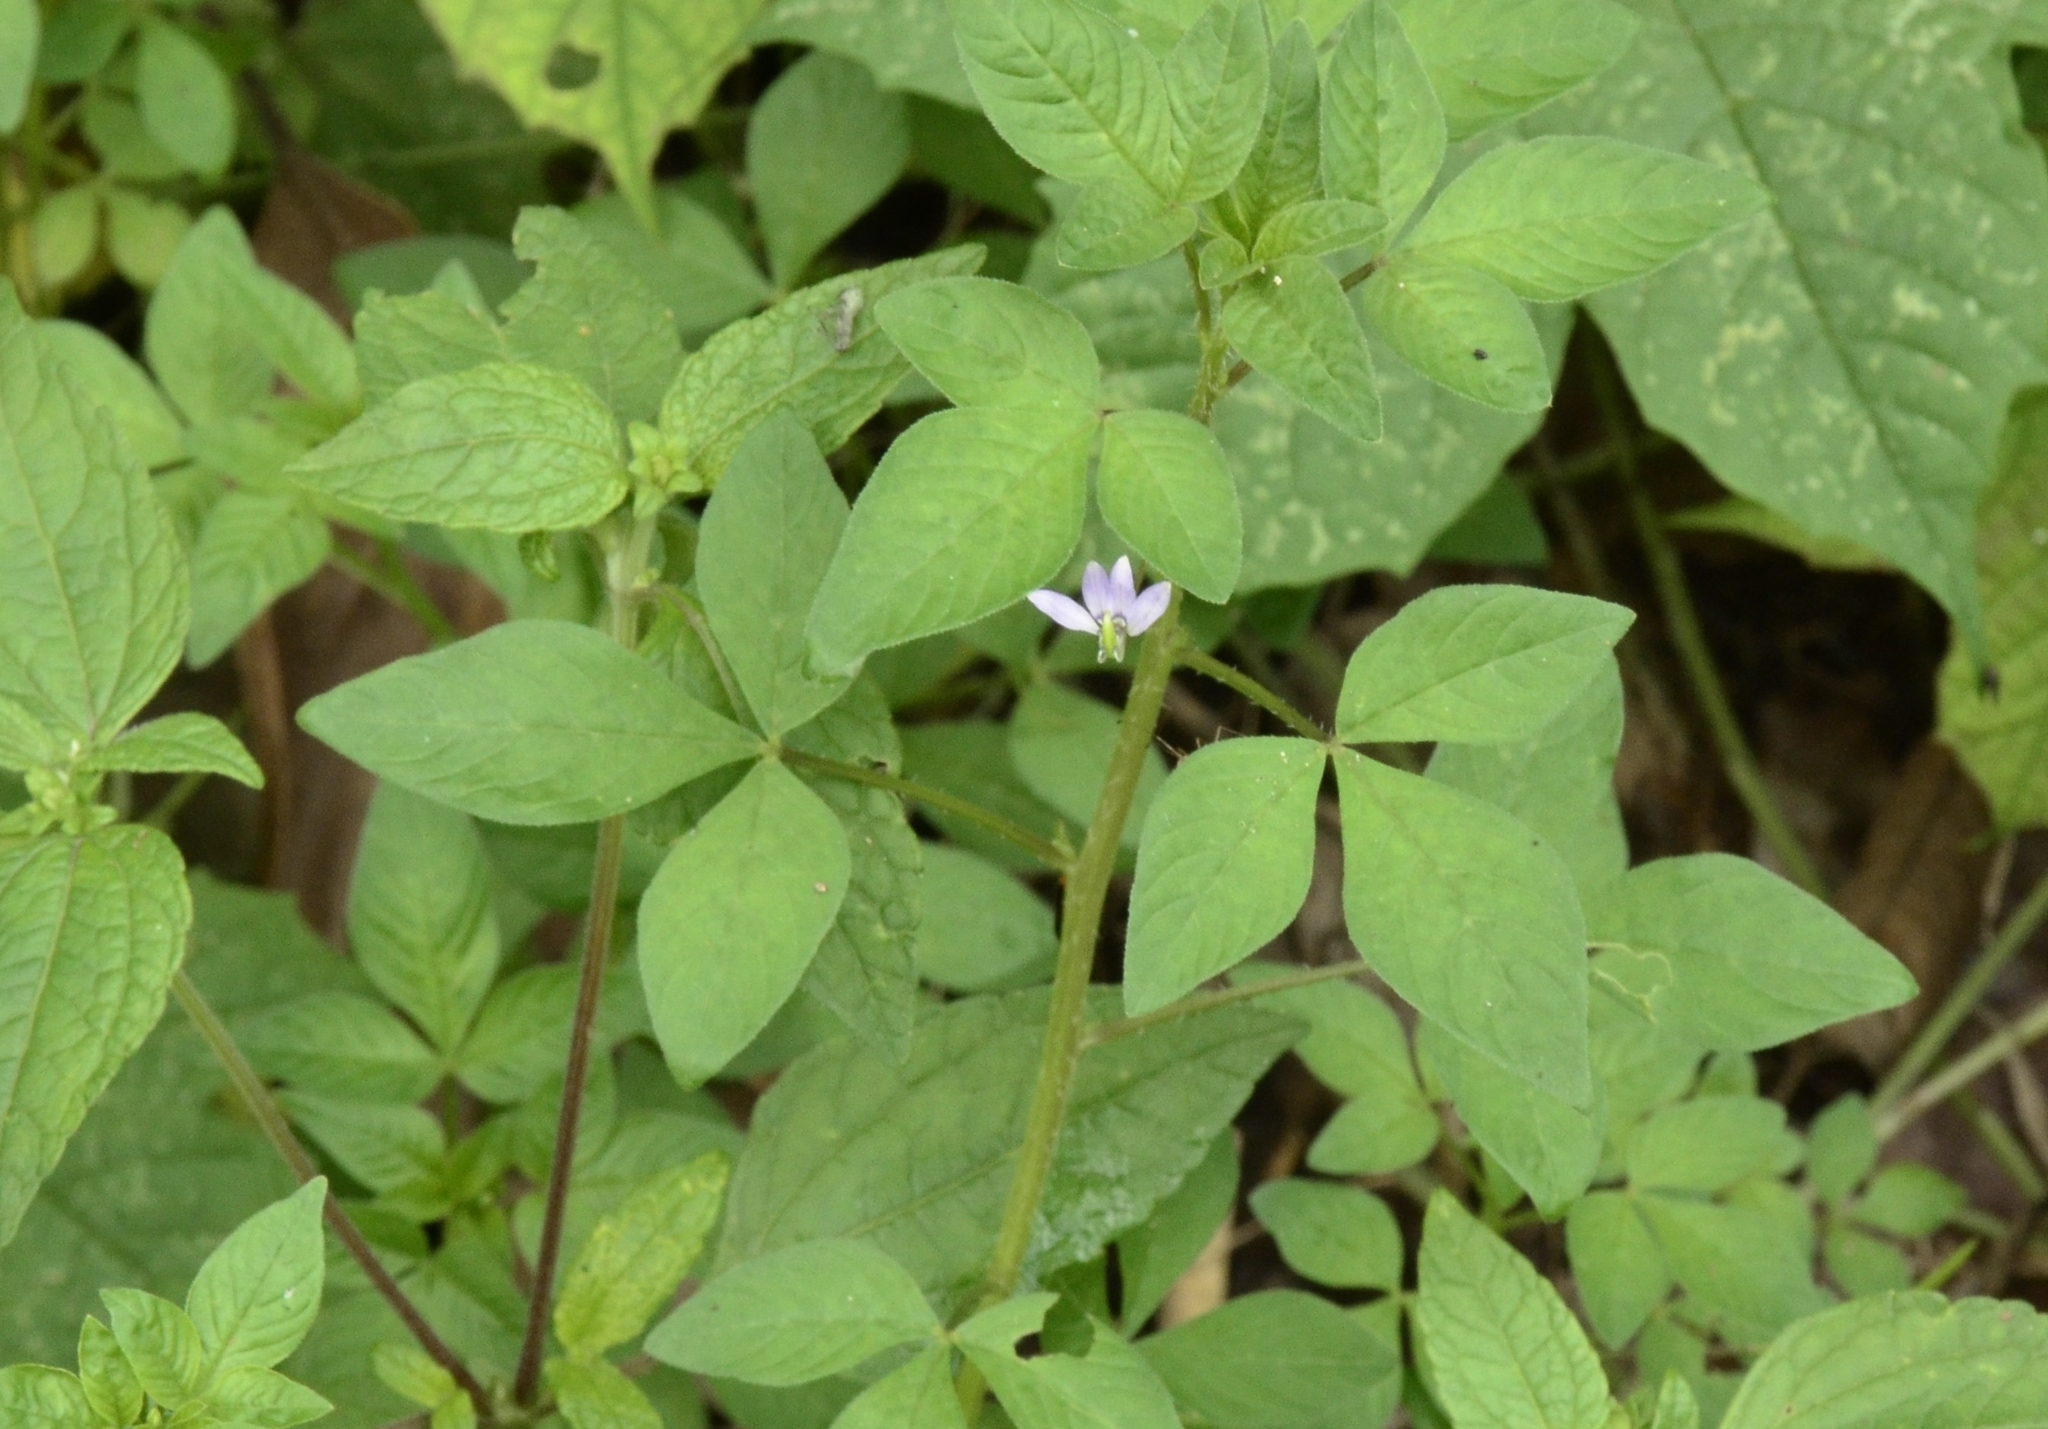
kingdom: Plantae
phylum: Tracheophyta
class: Magnoliopsida
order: Brassicales
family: Cleomaceae
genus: Sieruela
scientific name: Sieruela rutidosperma
